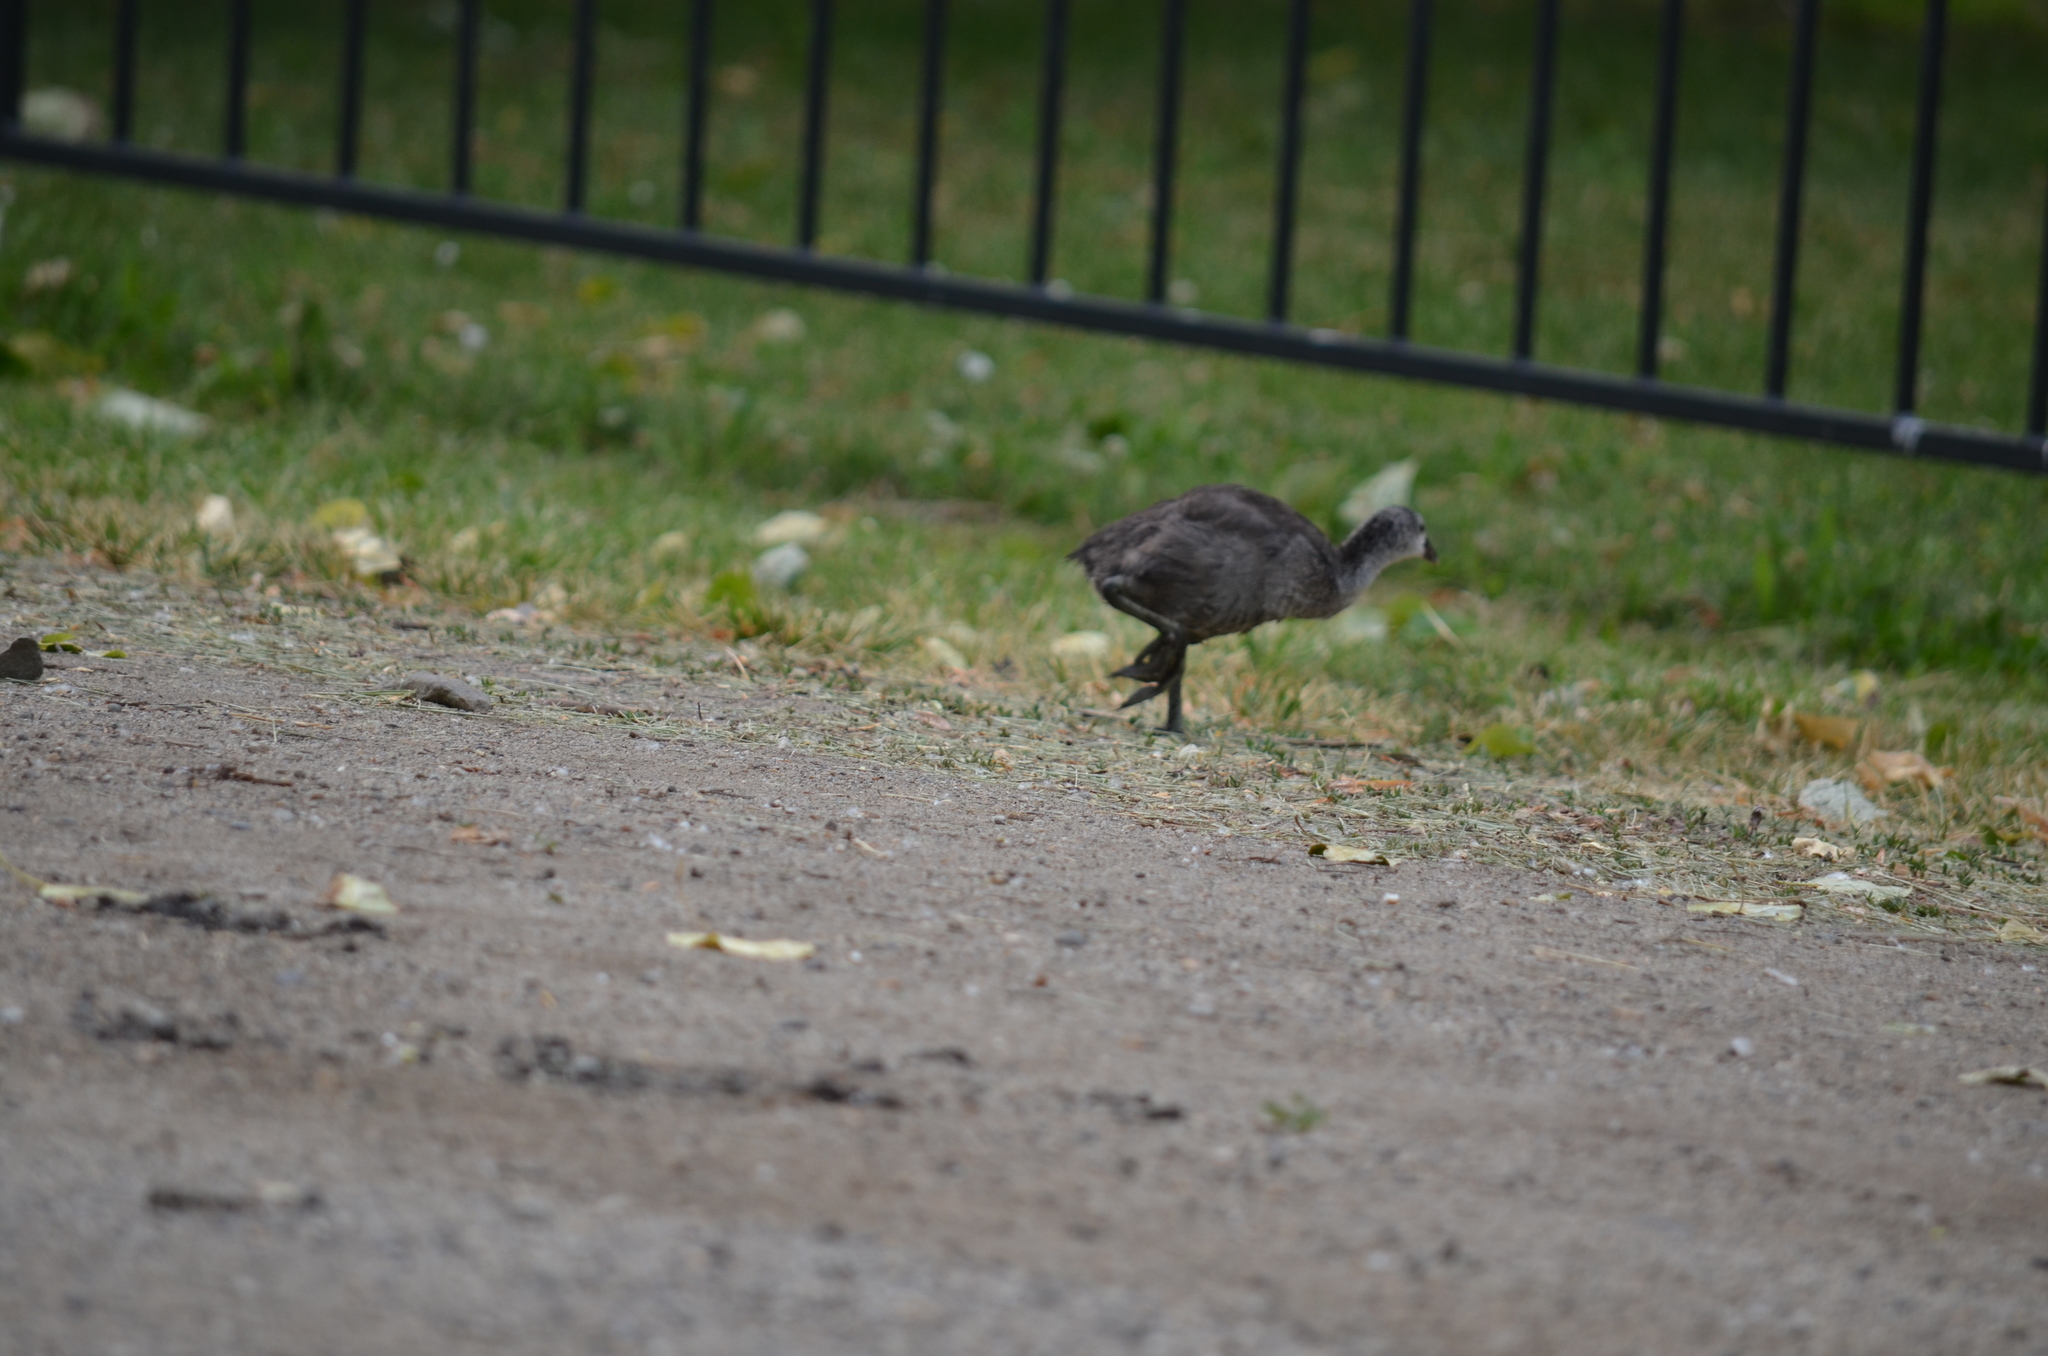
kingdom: Animalia
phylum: Chordata
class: Aves
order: Gruiformes
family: Rallidae
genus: Fulica
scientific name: Fulica americana
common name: American coot
